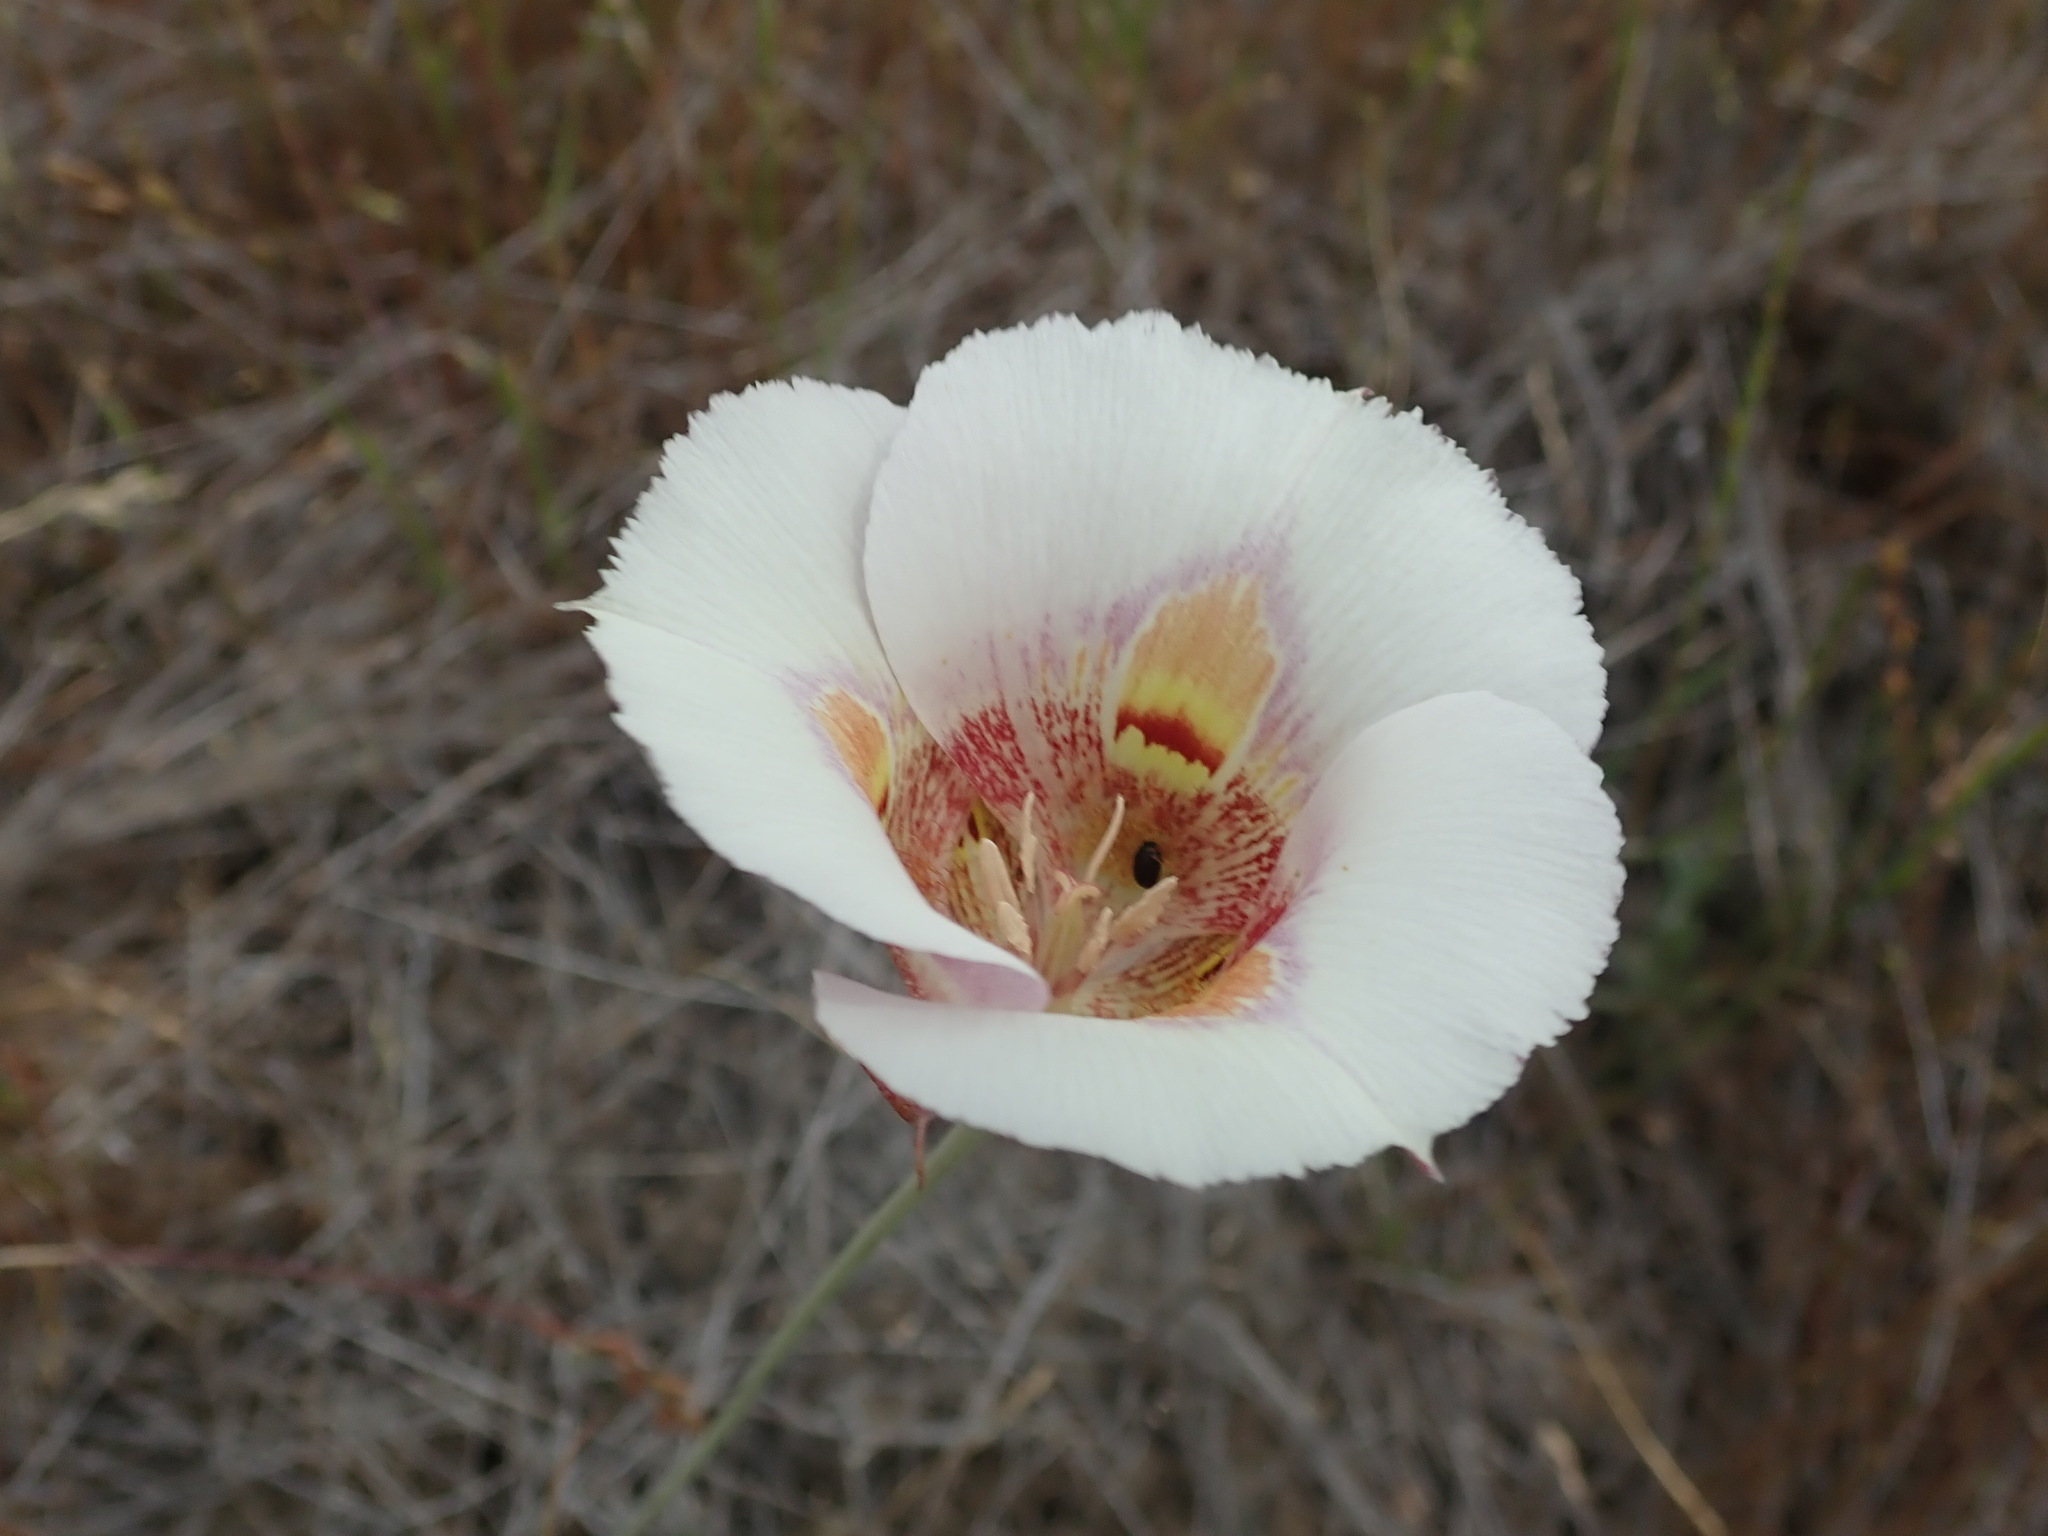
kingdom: Plantae
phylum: Tracheophyta
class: Liliopsida
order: Liliales
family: Liliaceae
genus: Calochortus
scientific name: Calochortus argillosus
